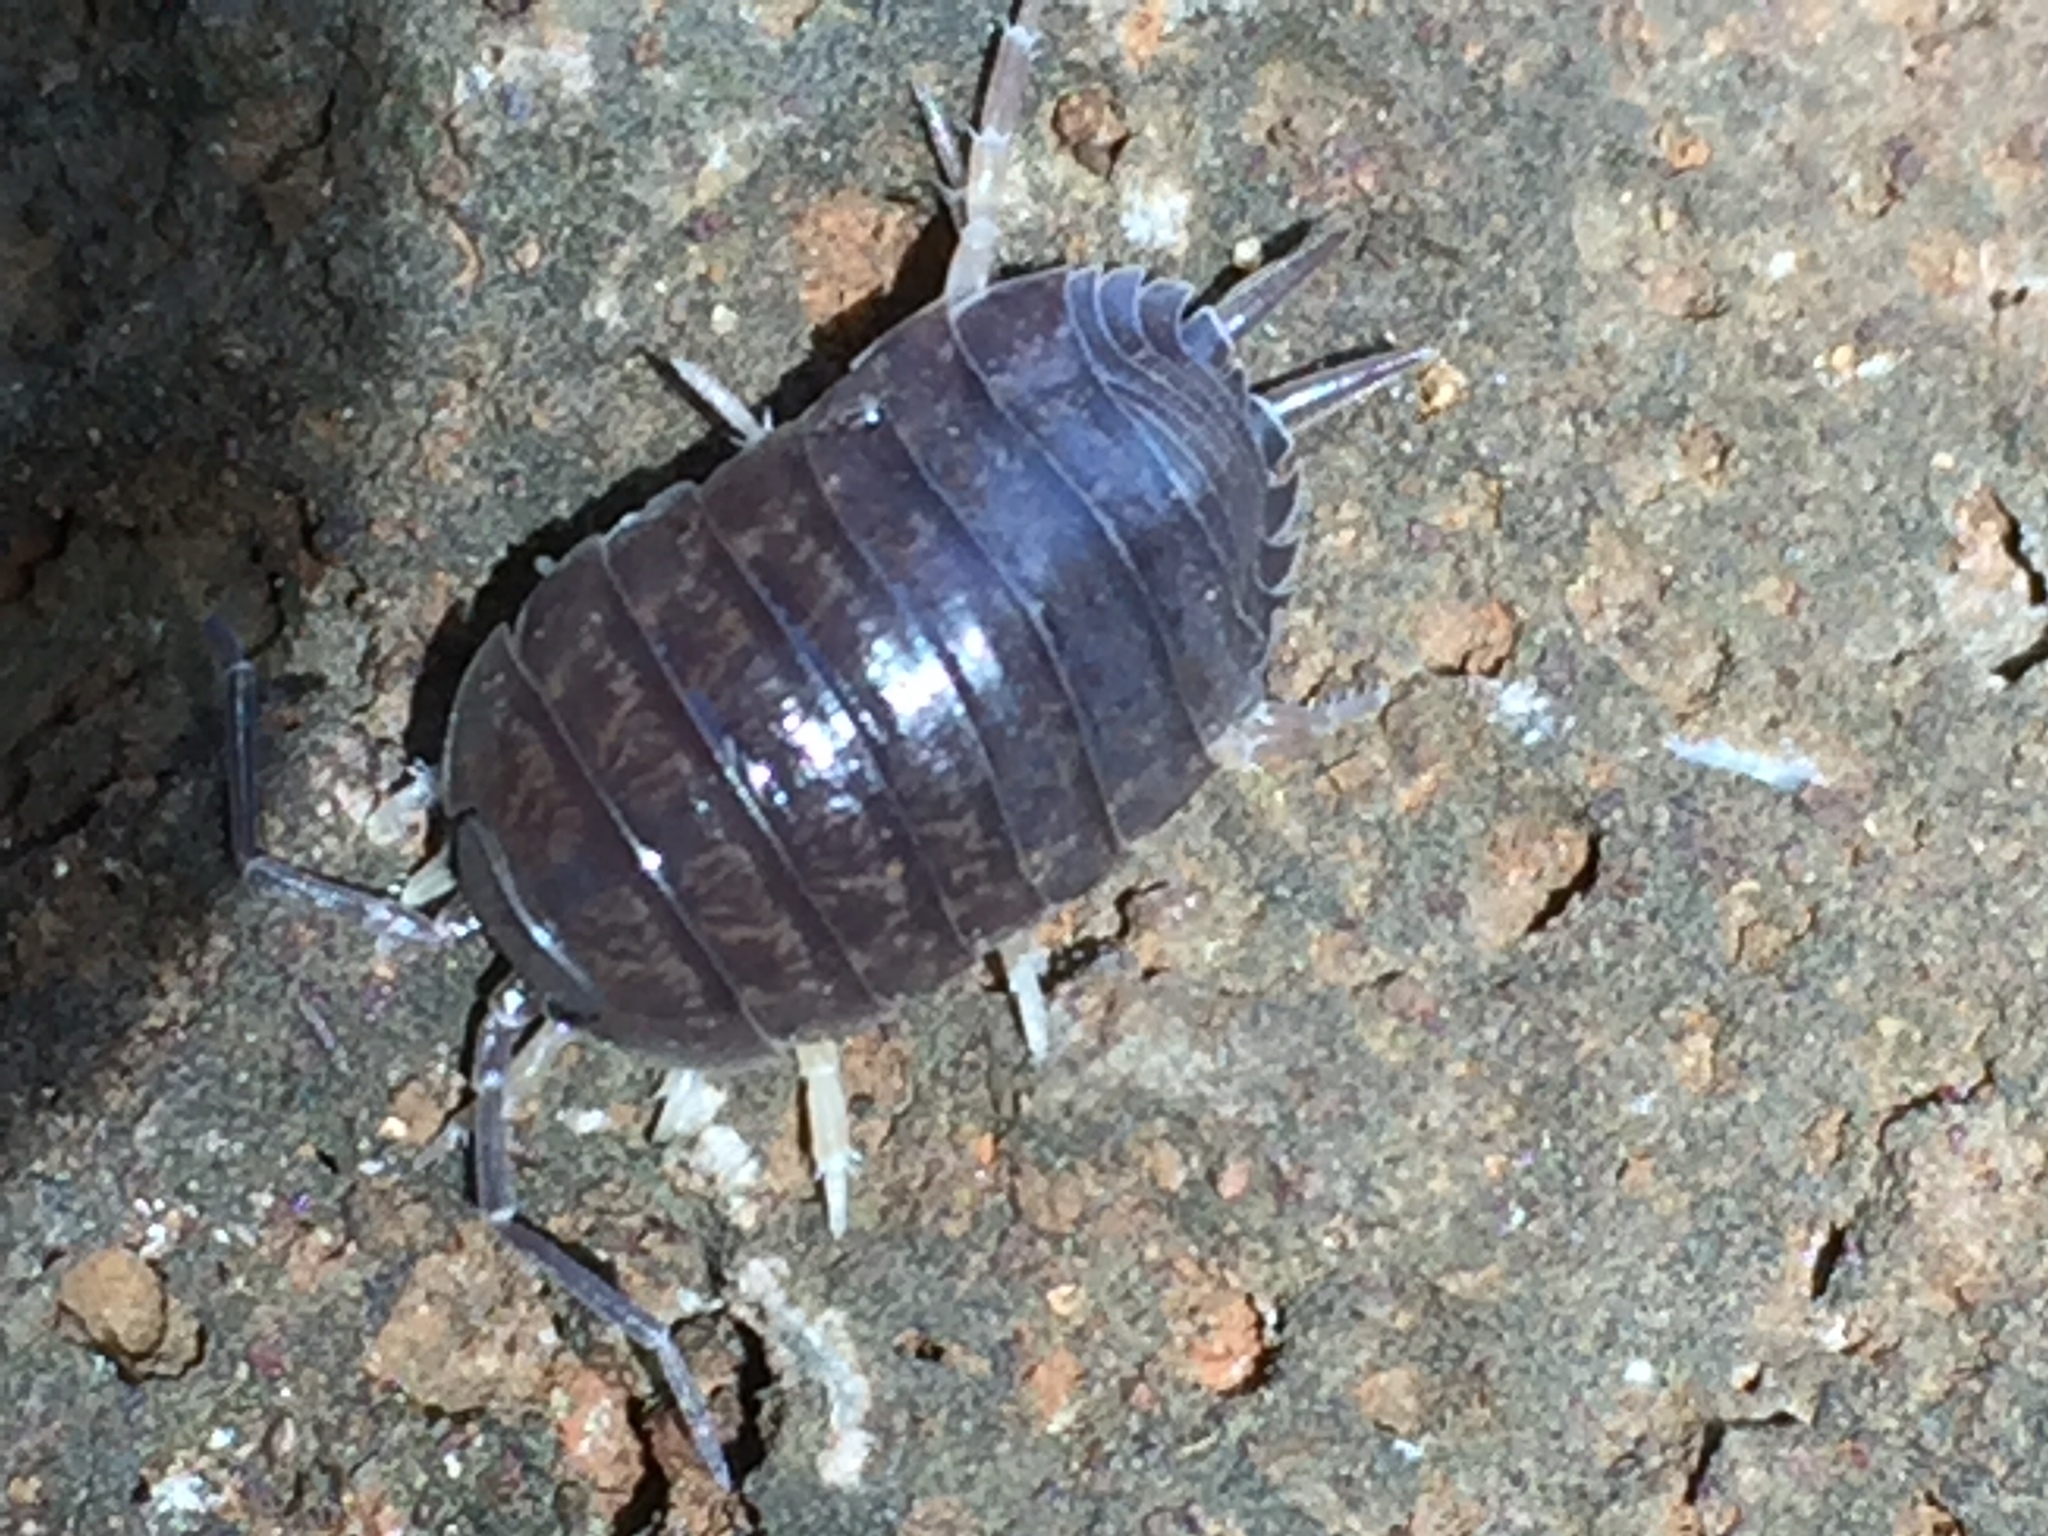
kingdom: Animalia
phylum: Arthropoda
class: Malacostraca
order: Isopoda
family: Porcellionidae
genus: Porcellio
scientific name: Porcellio laevis
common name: Swift woodlouse
